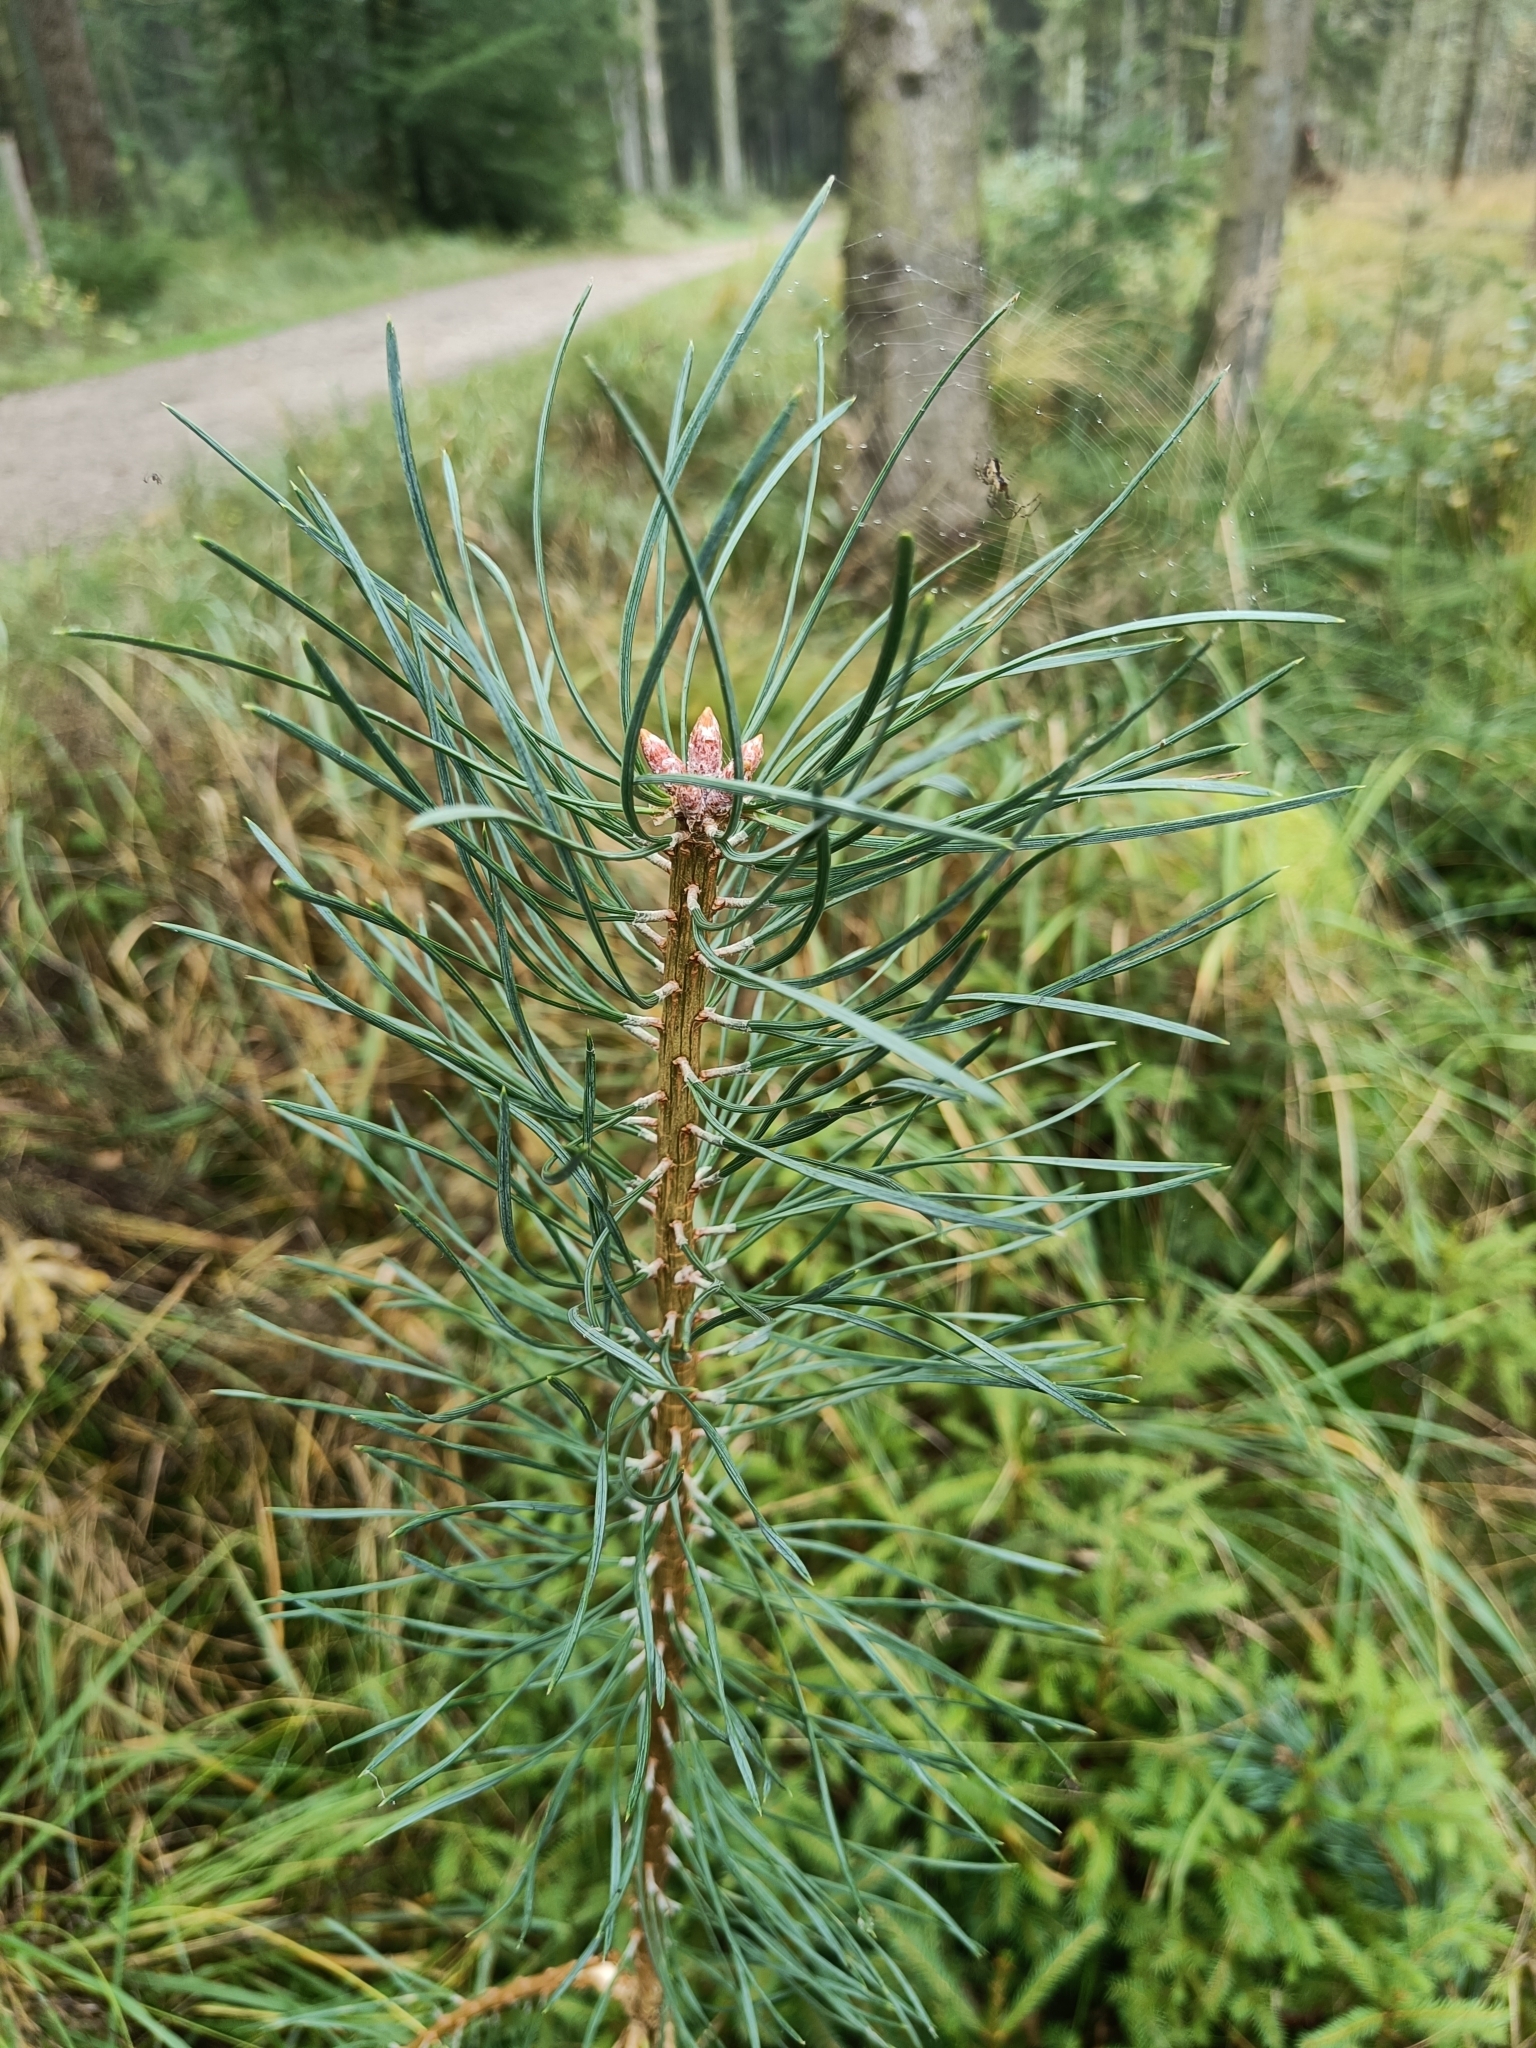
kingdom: Plantae
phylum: Tracheophyta
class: Pinopsida
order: Pinales
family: Pinaceae
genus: Pinus
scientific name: Pinus sylvestris
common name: Scots pine
